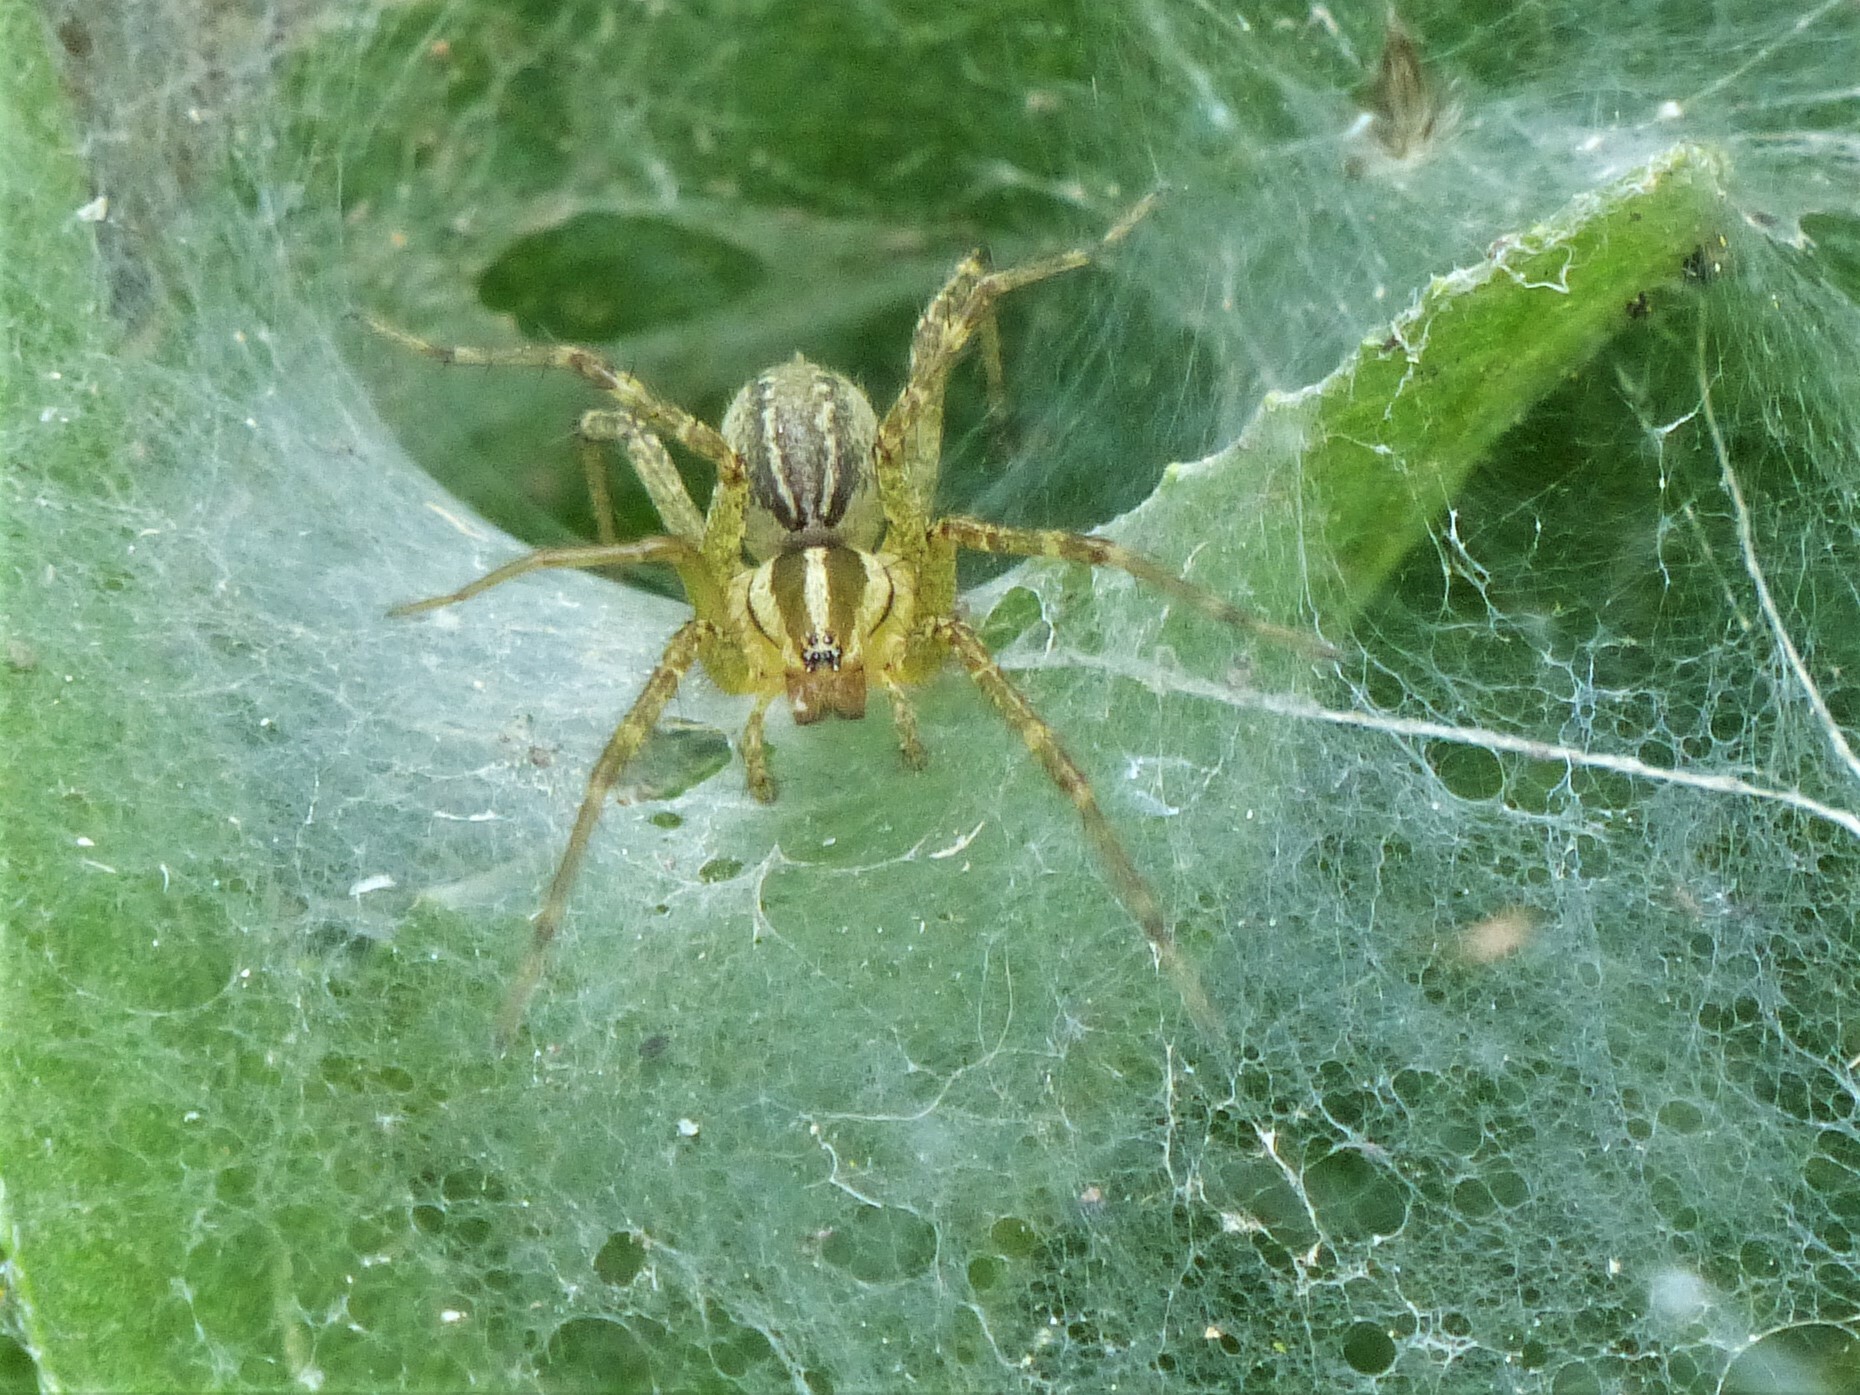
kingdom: Animalia
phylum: Arthropoda
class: Arachnida
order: Araneae
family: Agelenidae
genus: Agelenopsis
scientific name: Agelenopsis
